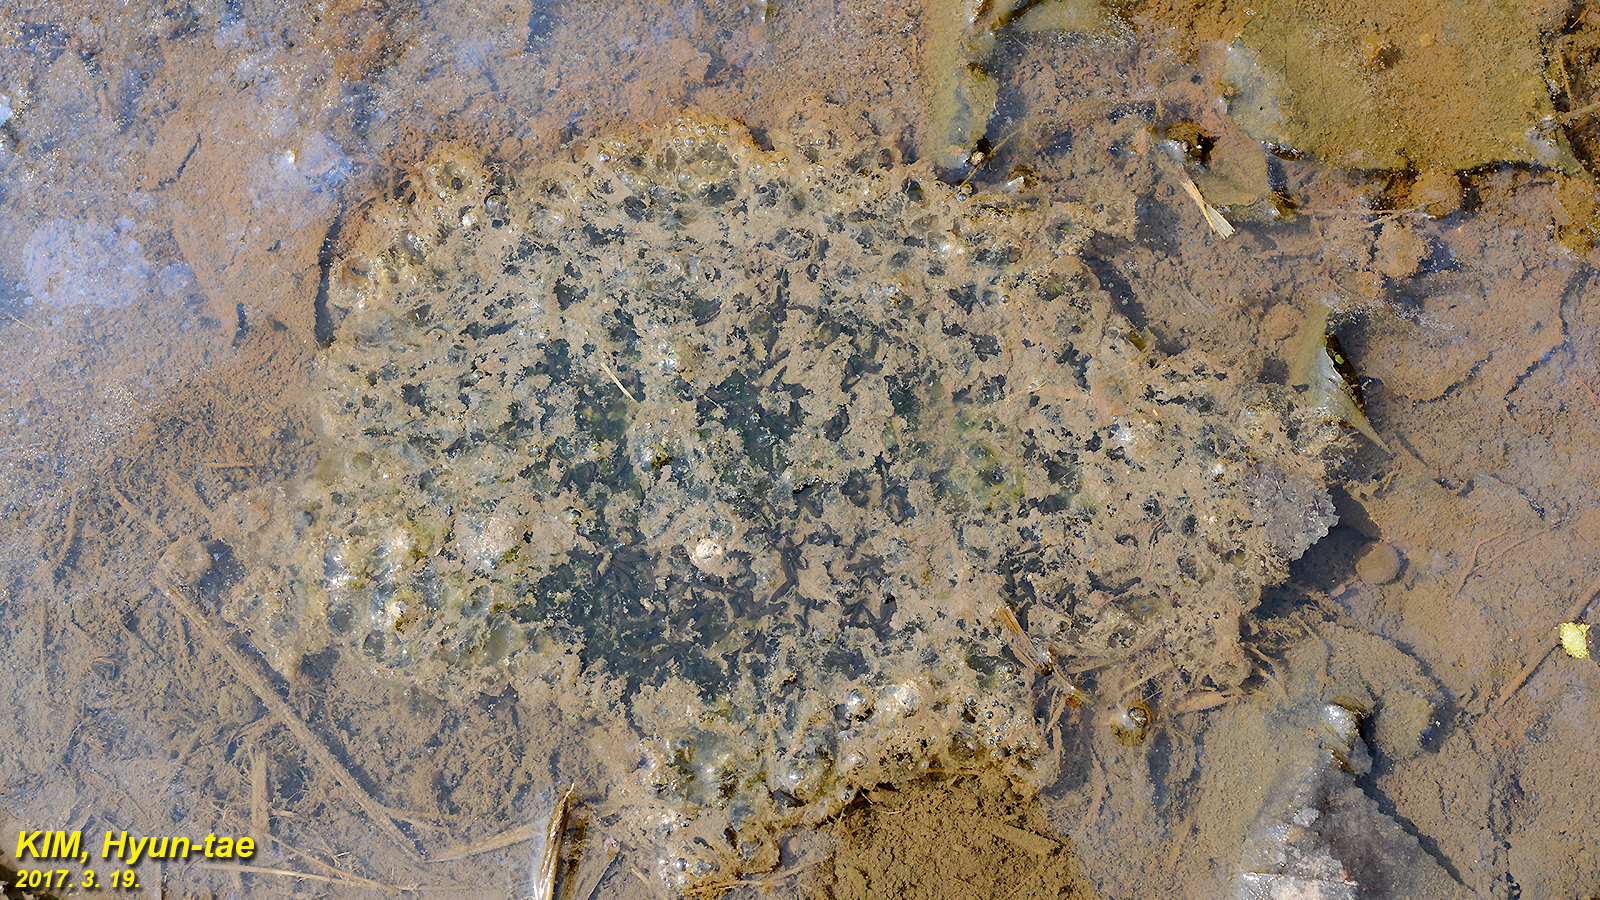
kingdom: Animalia
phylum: Chordata
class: Amphibia
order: Anura
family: Ranidae
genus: Rana
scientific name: Rana uenoi
